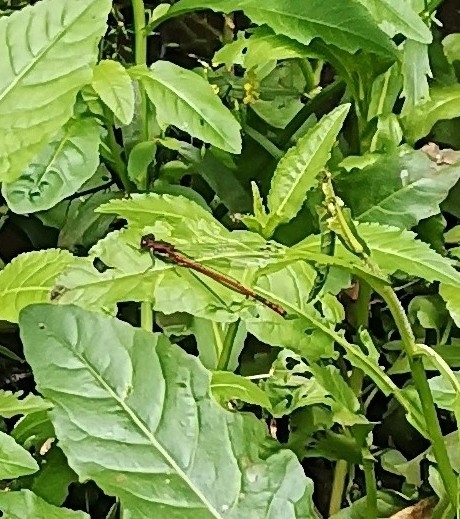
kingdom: Animalia
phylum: Arthropoda
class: Insecta
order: Odonata
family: Coenagrionidae
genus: Pyrrhosoma
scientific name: Pyrrhosoma nymphula
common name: Large red damsel
